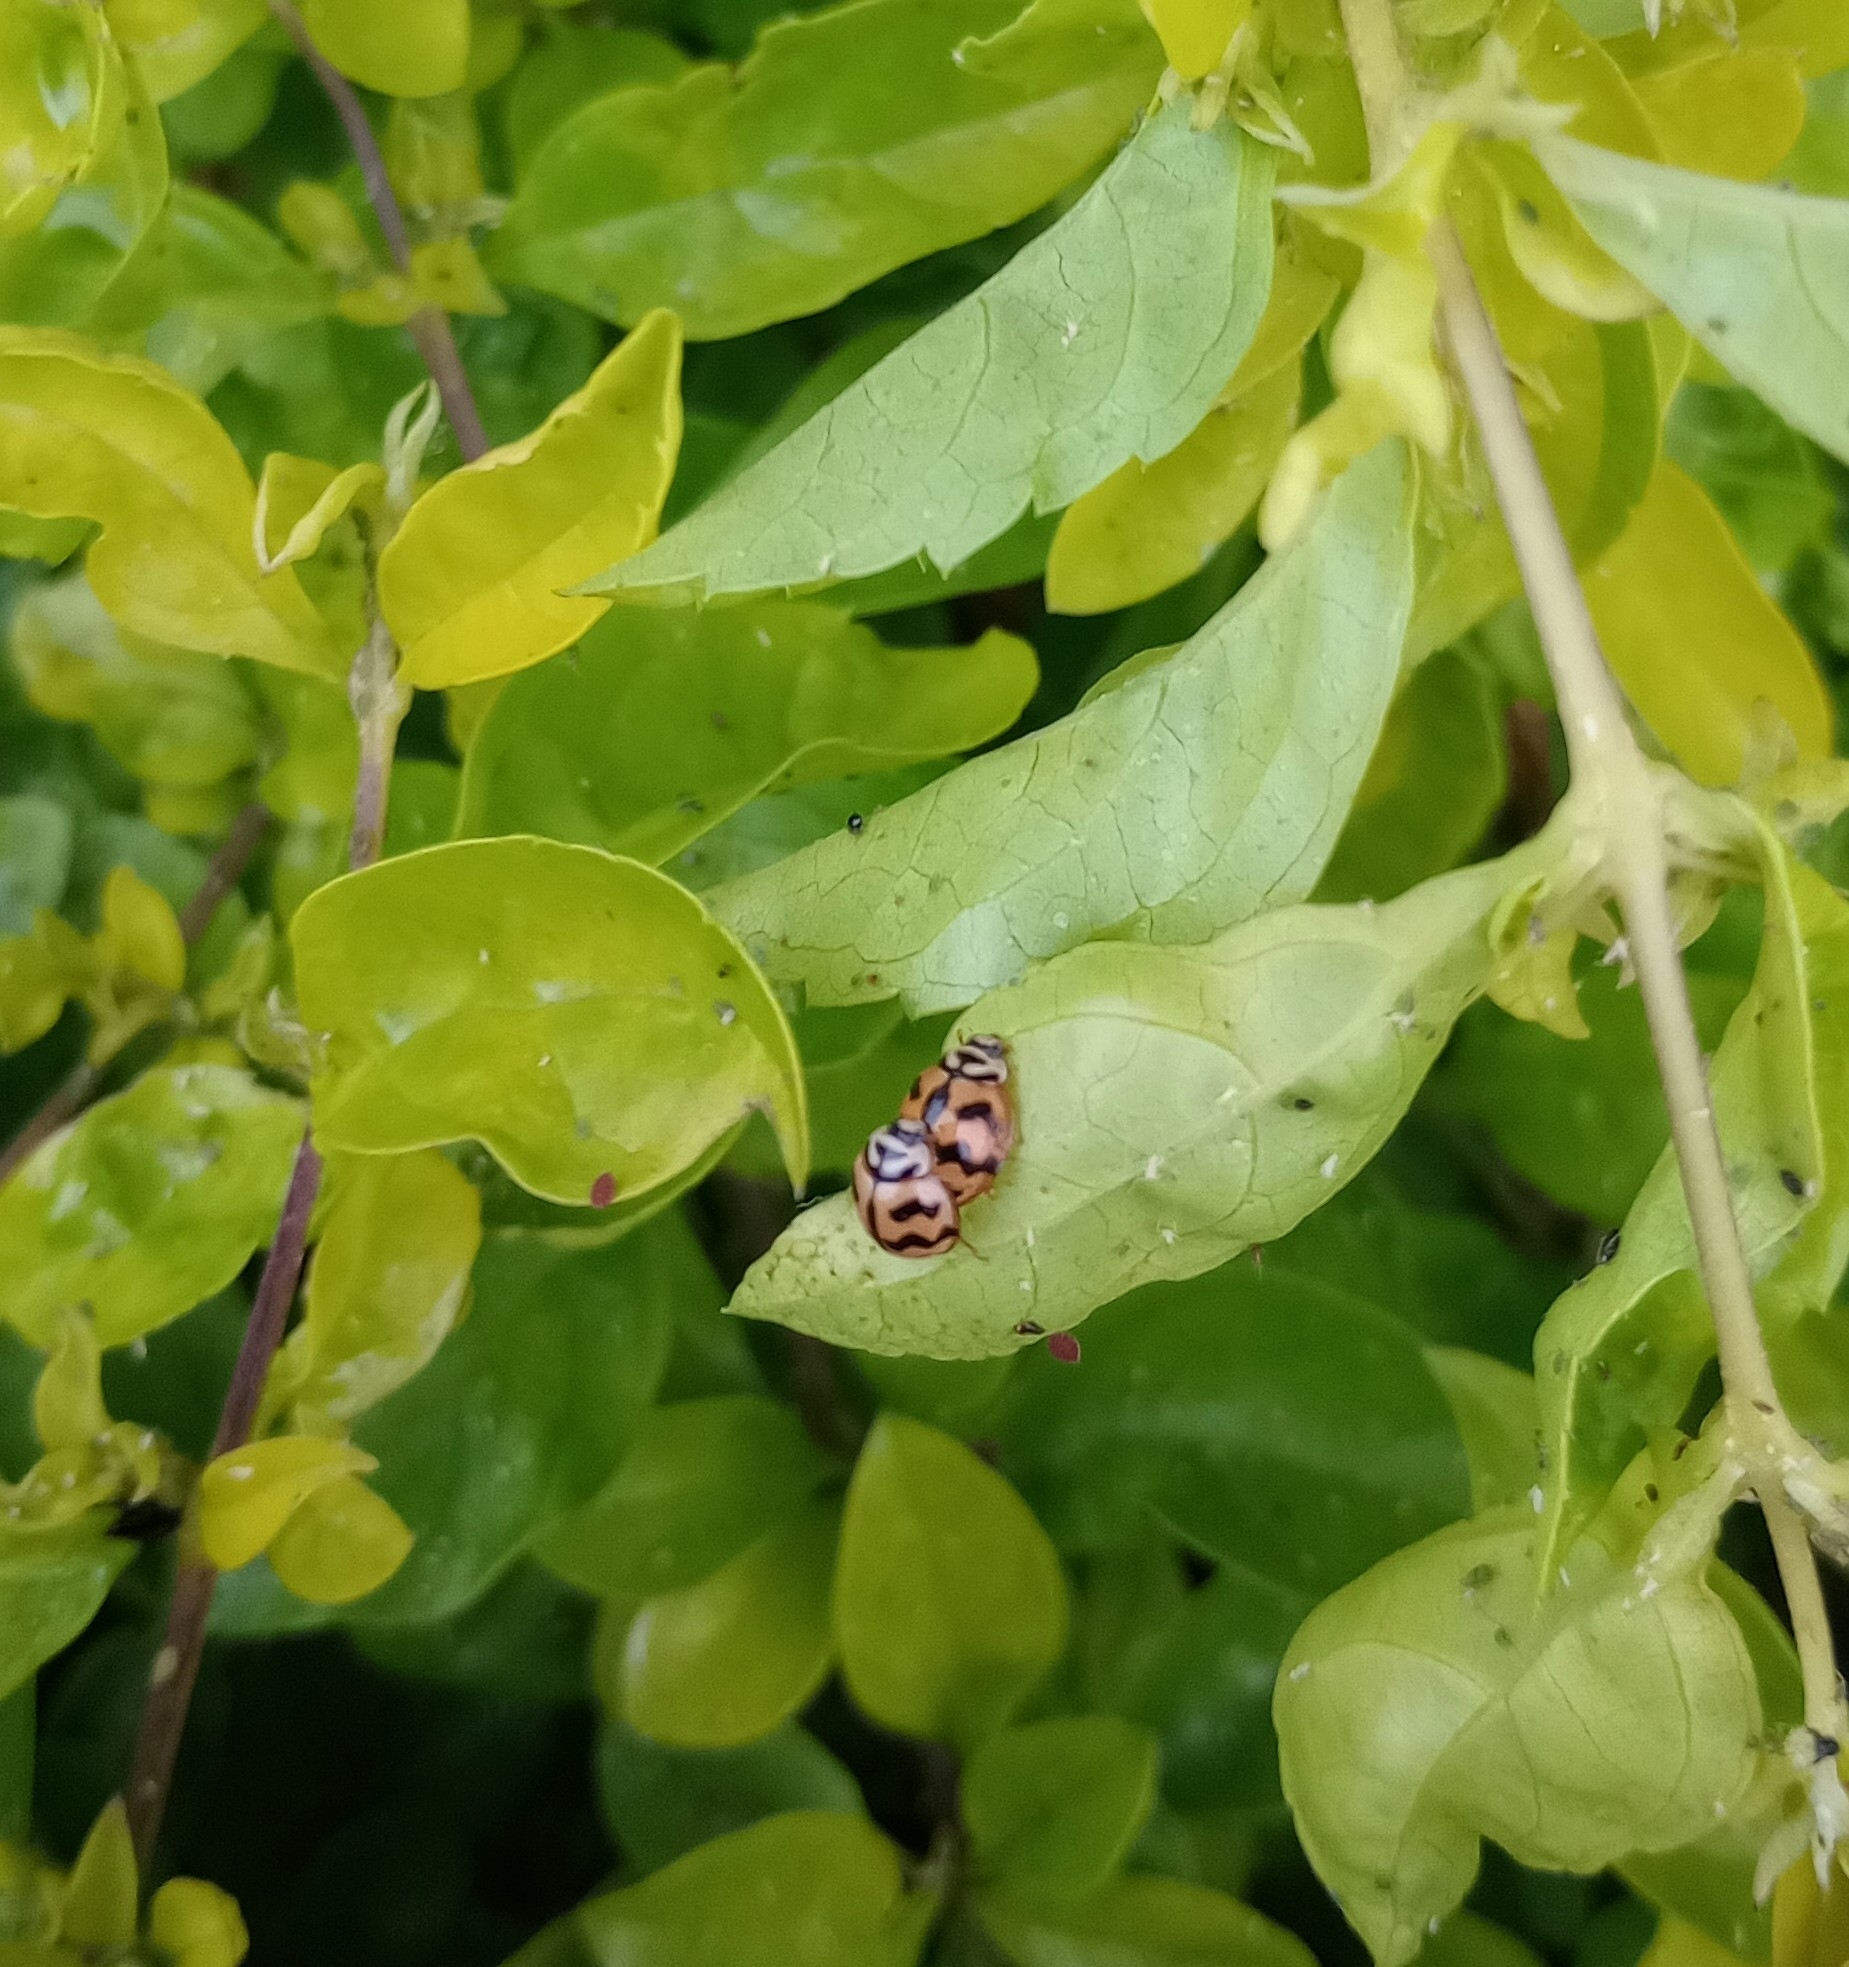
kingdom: Animalia
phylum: Arthropoda
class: Insecta
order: Coleoptera
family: Coccinellidae
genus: Cheilomenes
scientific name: Cheilomenes sexmaculata
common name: Ladybird beetle
